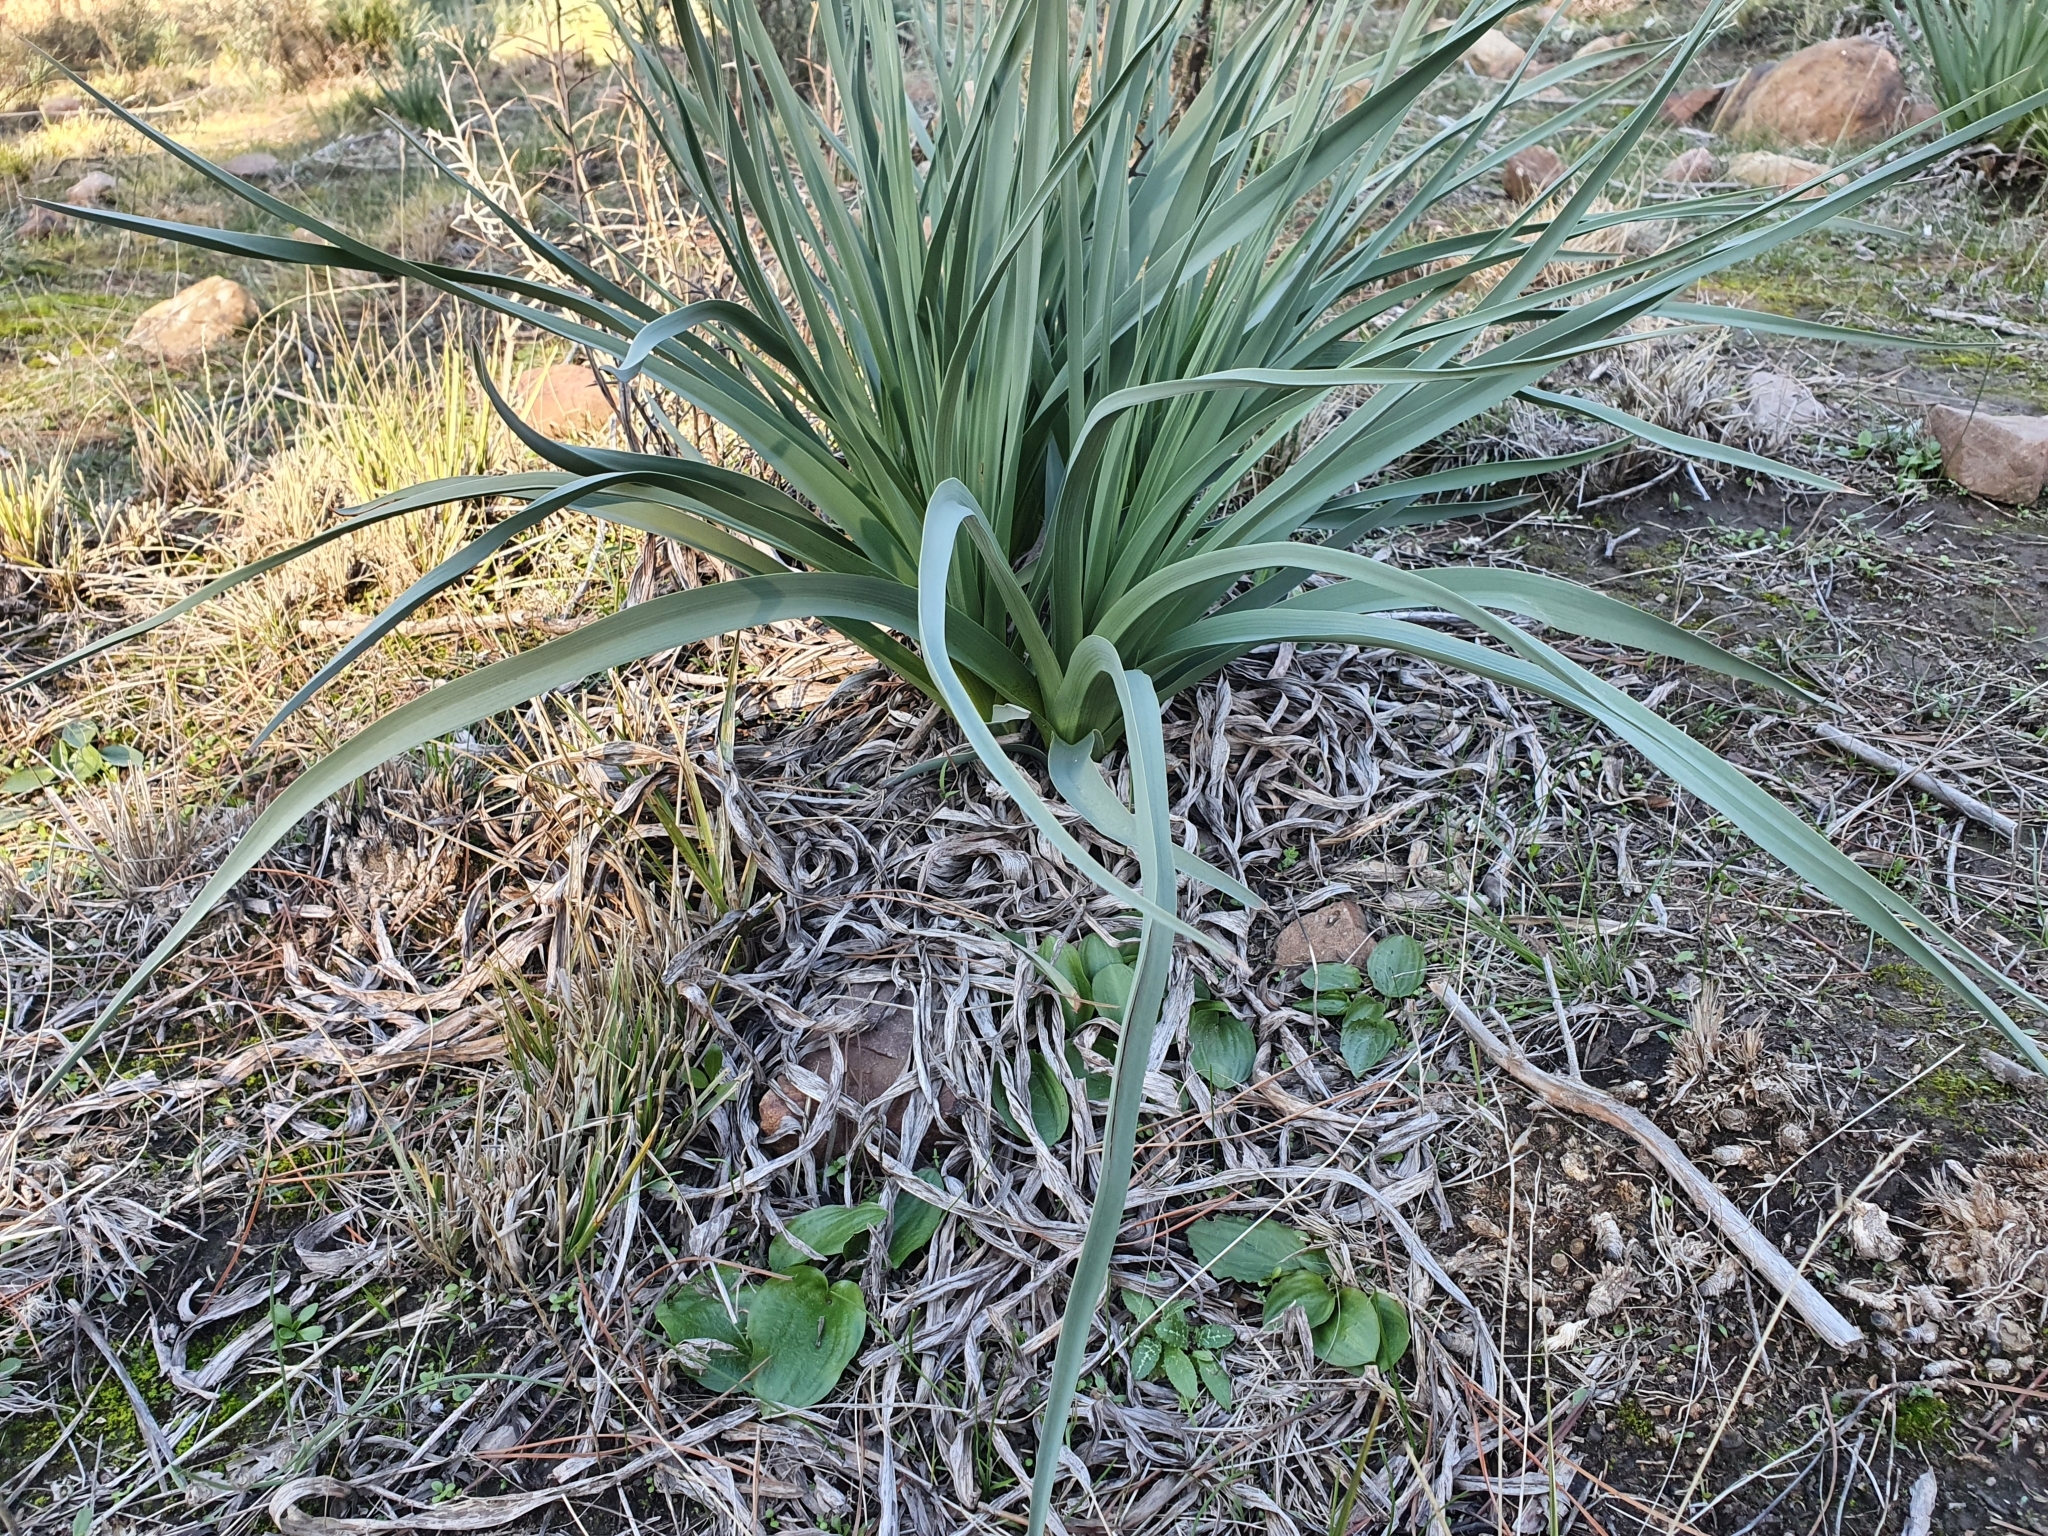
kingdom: Plantae
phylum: Tracheophyta
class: Liliopsida
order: Alismatales
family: Araceae
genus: Ambrosina
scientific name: Ambrosina bassii
